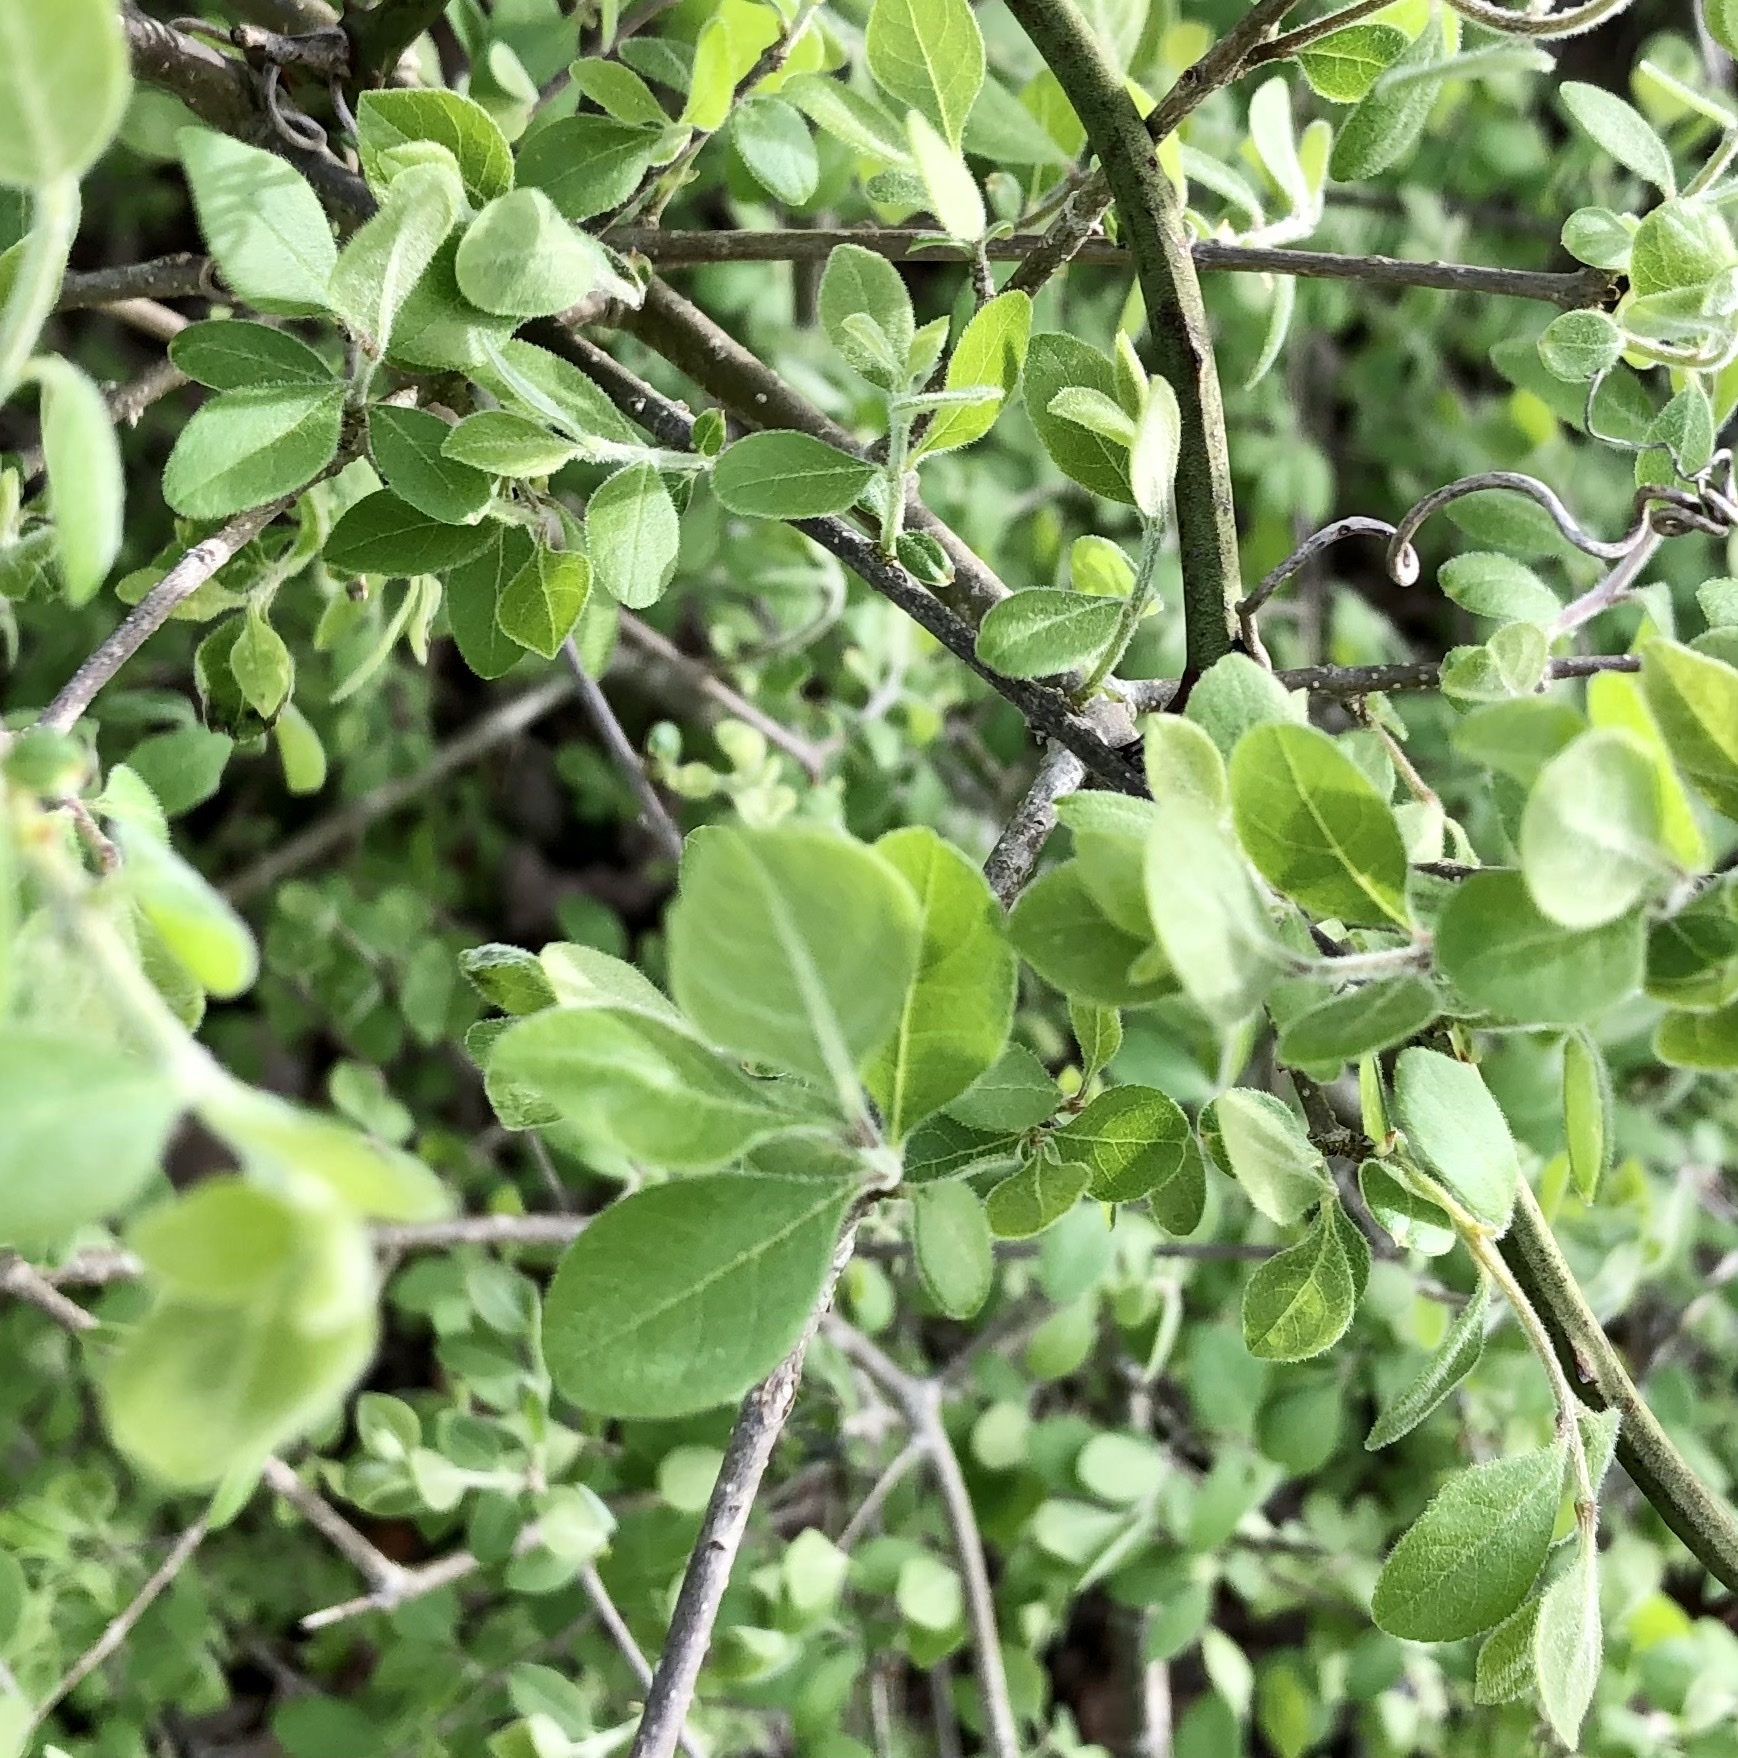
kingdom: Plantae
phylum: Tracheophyta
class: Magnoliopsida
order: Lamiales
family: Oleaceae
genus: Forestiera
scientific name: Forestiera pubescens
